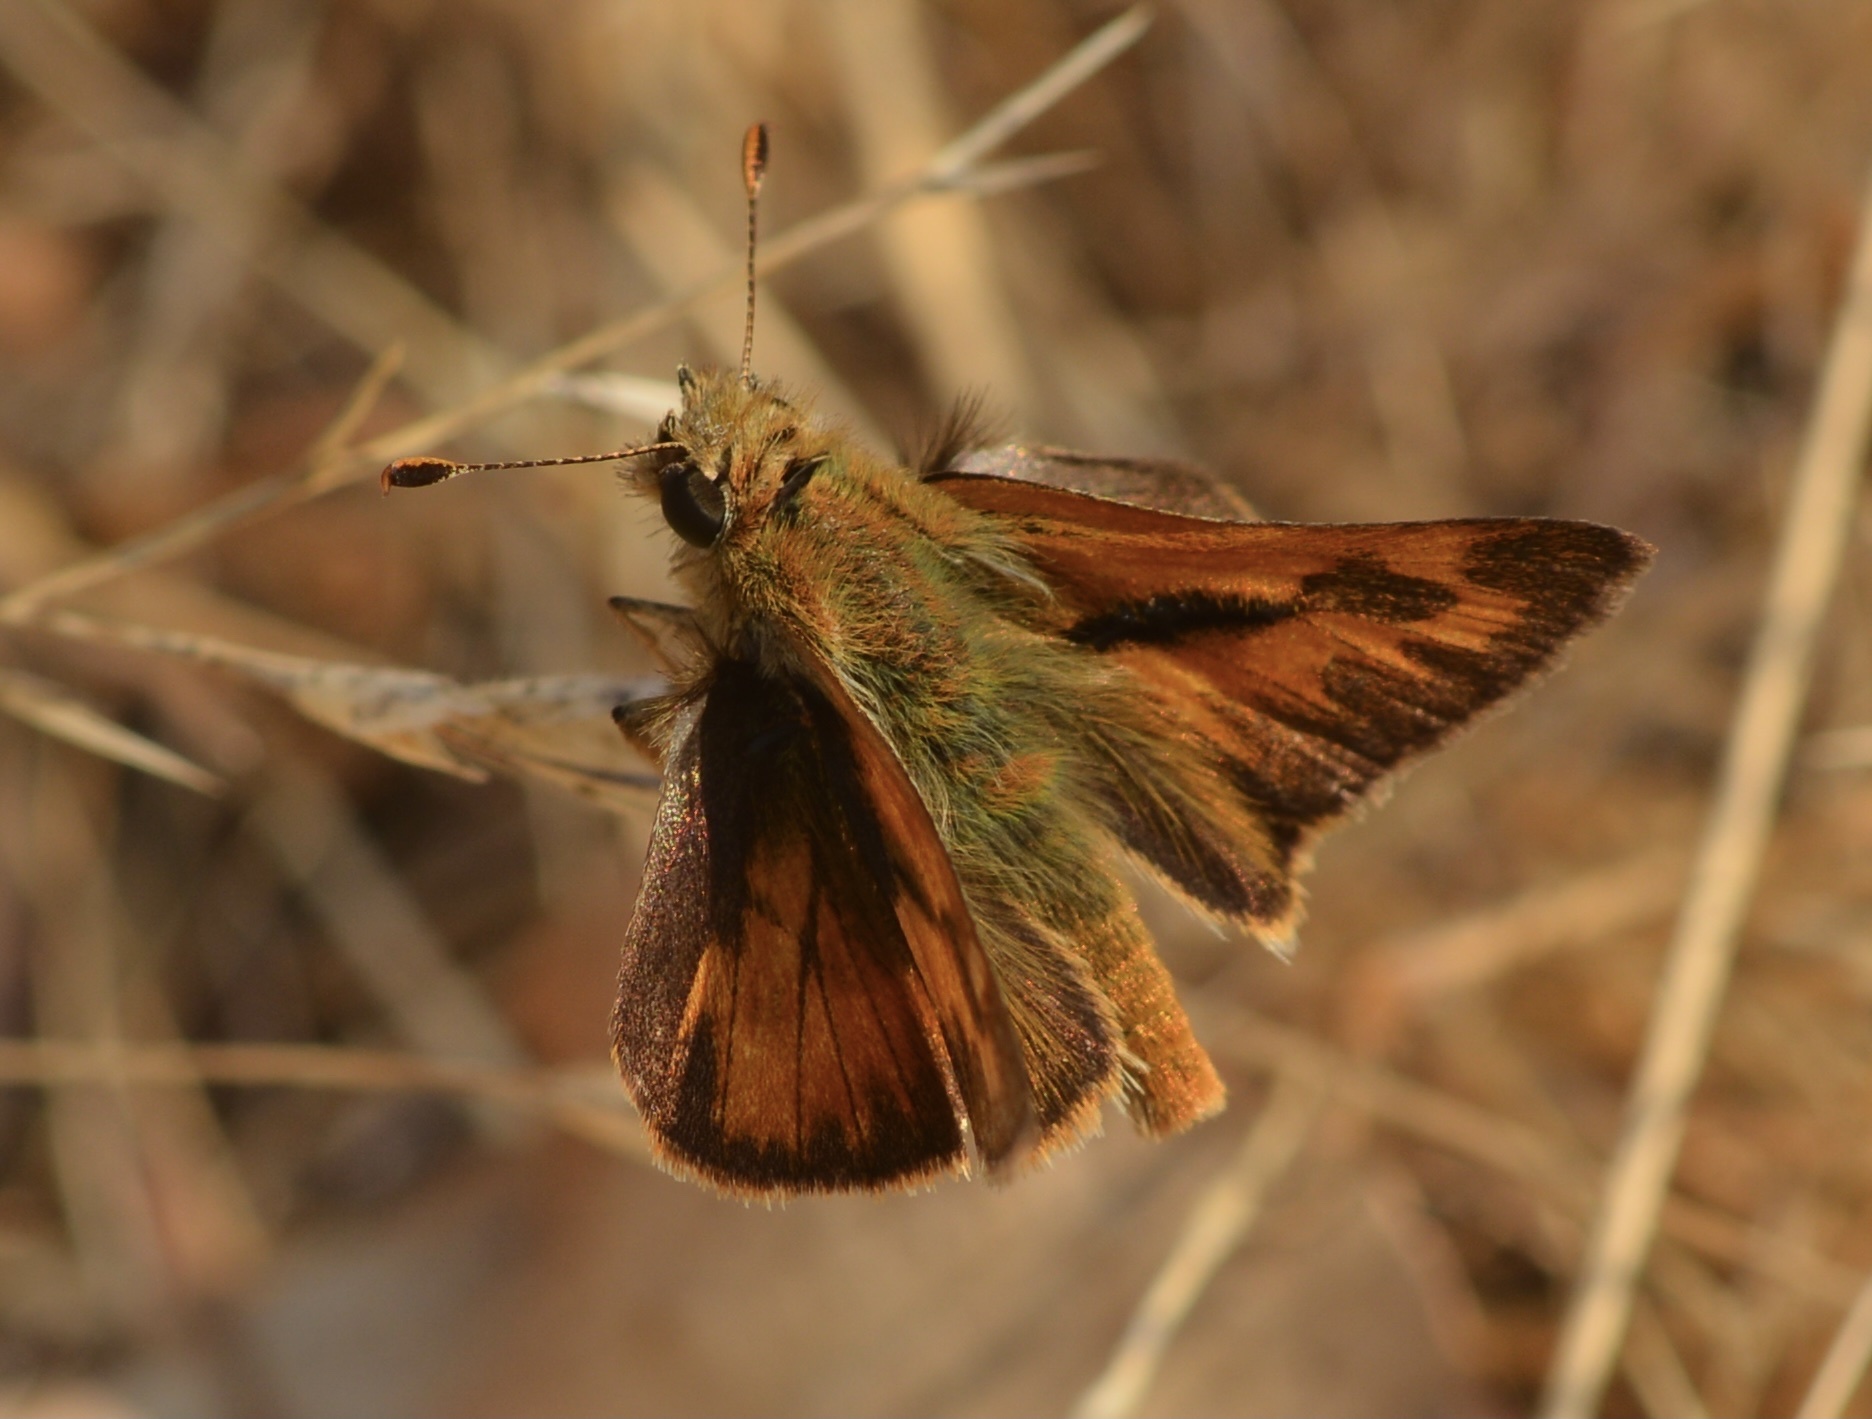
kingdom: Animalia
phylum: Arthropoda
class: Insecta
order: Lepidoptera
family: Hesperiidae
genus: Ochlodes
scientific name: Ochlodes sylvanoides
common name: Woodland skipper
